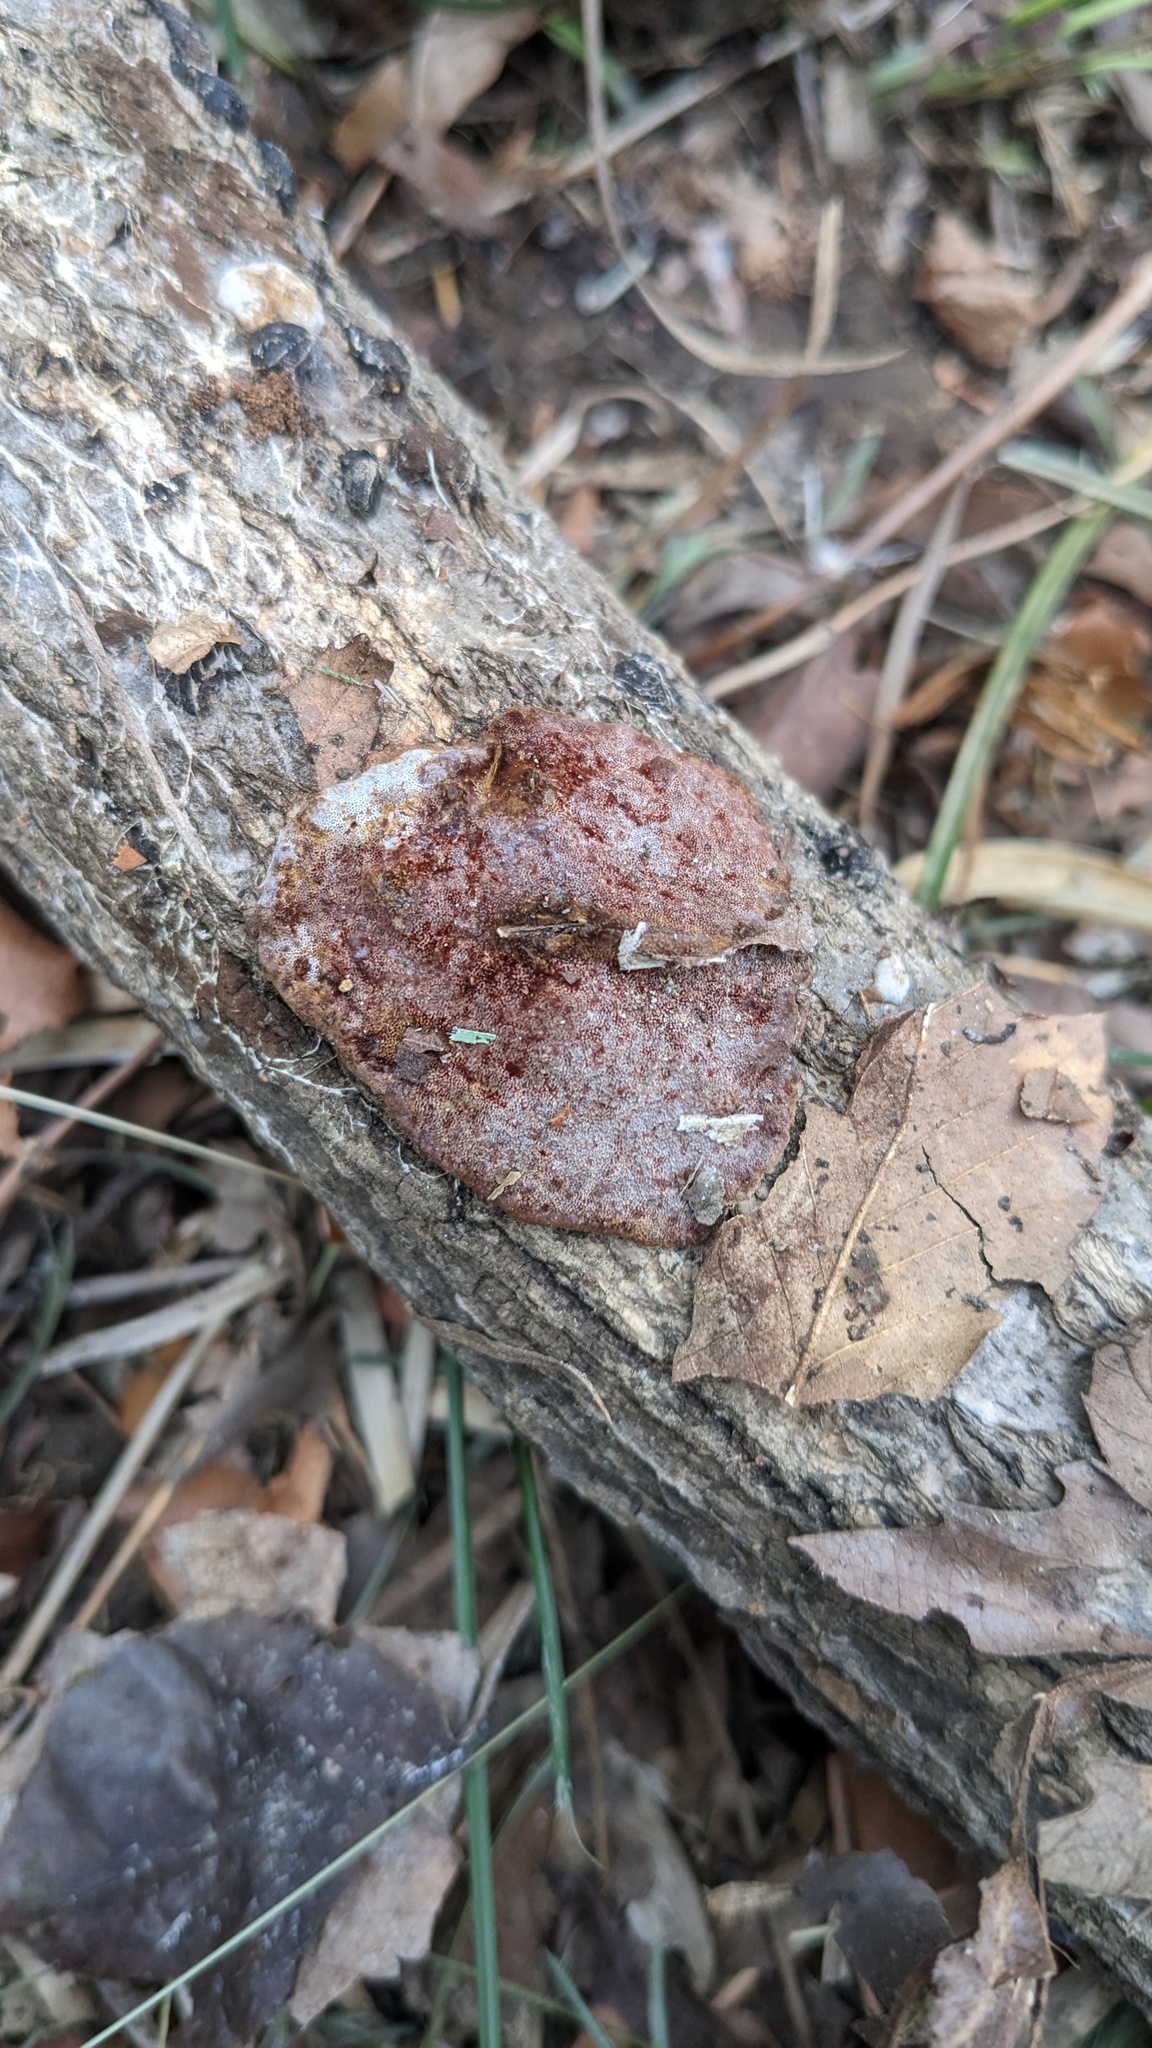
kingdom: Fungi
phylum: Basidiomycota
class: Agaricomycetes
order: Polyporales
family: Polyporaceae
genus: Abundisporus
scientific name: Abundisporus pubertatis
